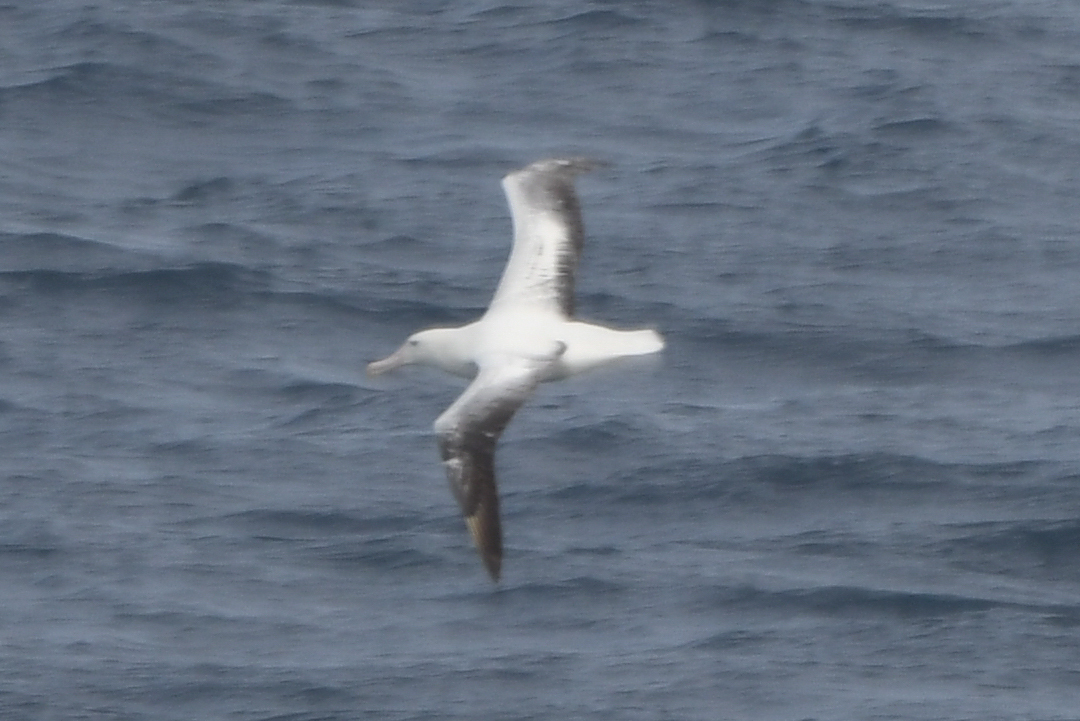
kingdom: Animalia
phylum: Chordata
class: Aves
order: Procellariiformes
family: Diomedeidae
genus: Diomedea
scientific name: Diomedea epomophora
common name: Southern royal albatross
